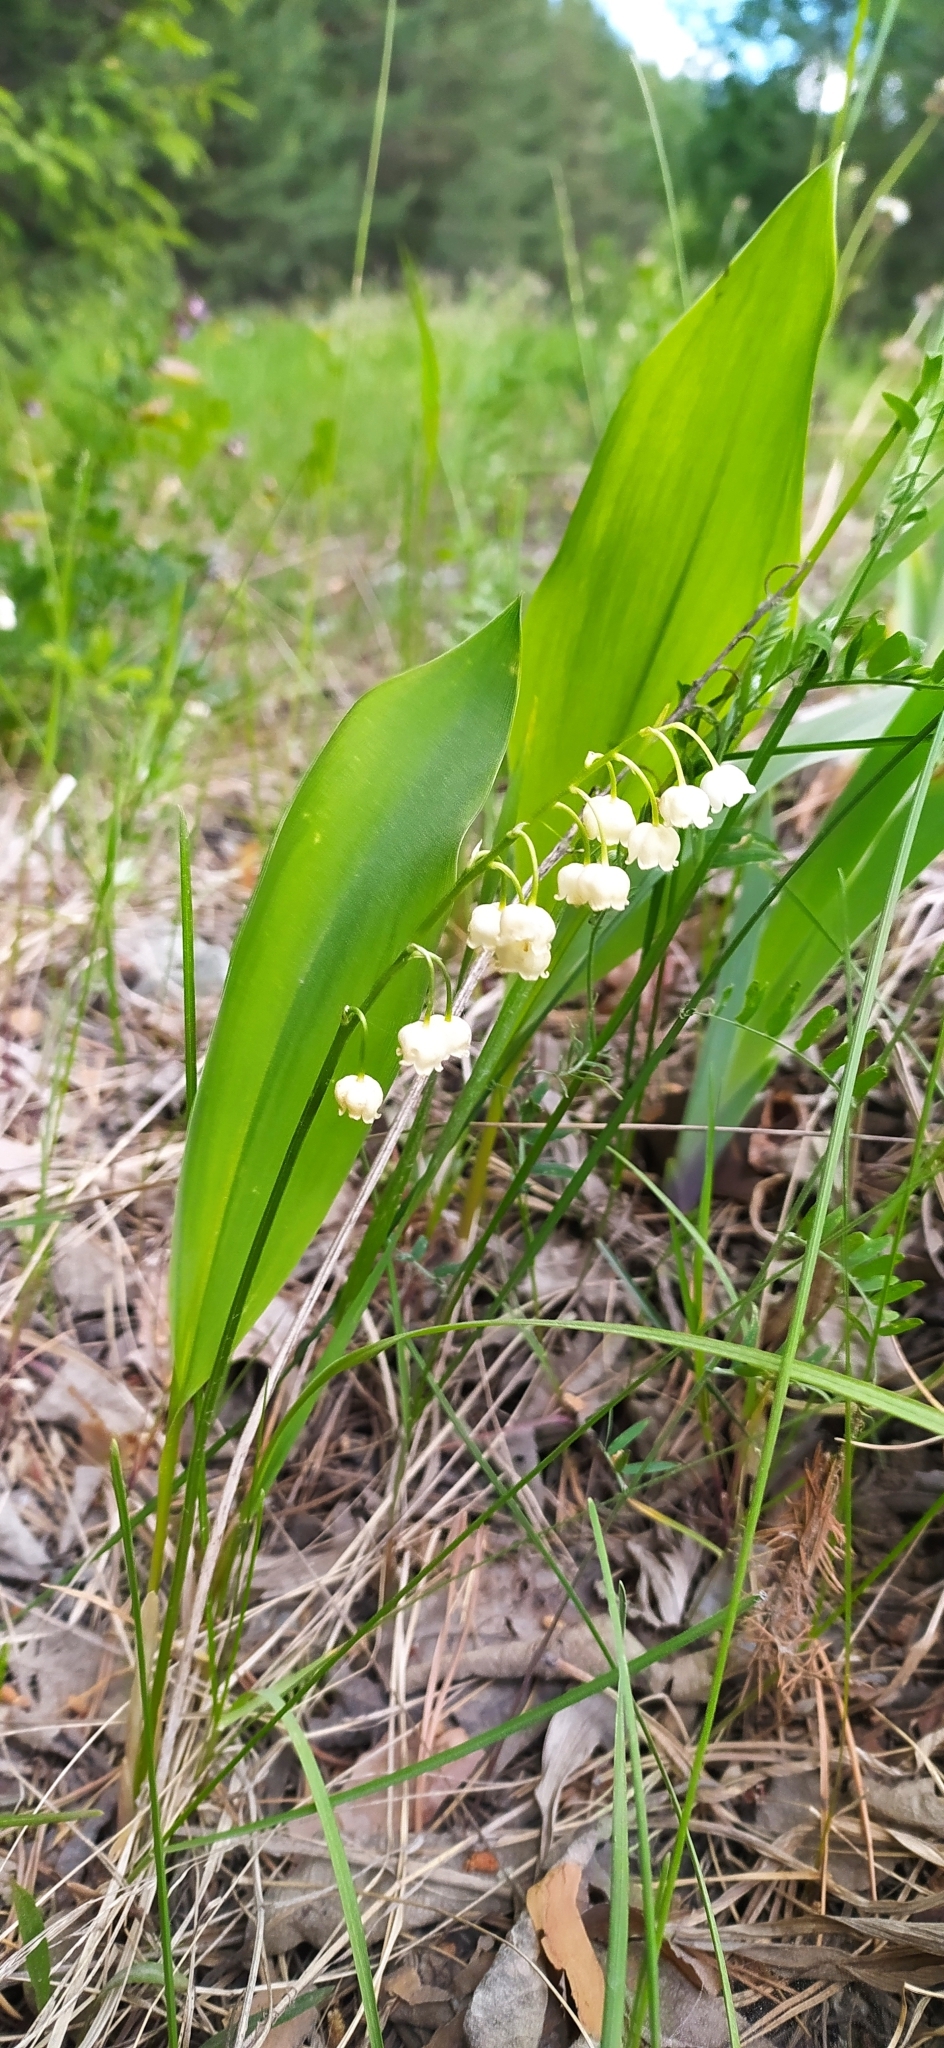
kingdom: Plantae
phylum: Tracheophyta
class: Liliopsida
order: Asparagales
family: Asparagaceae
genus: Convallaria
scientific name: Convallaria majalis
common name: Lily-of-the-valley
